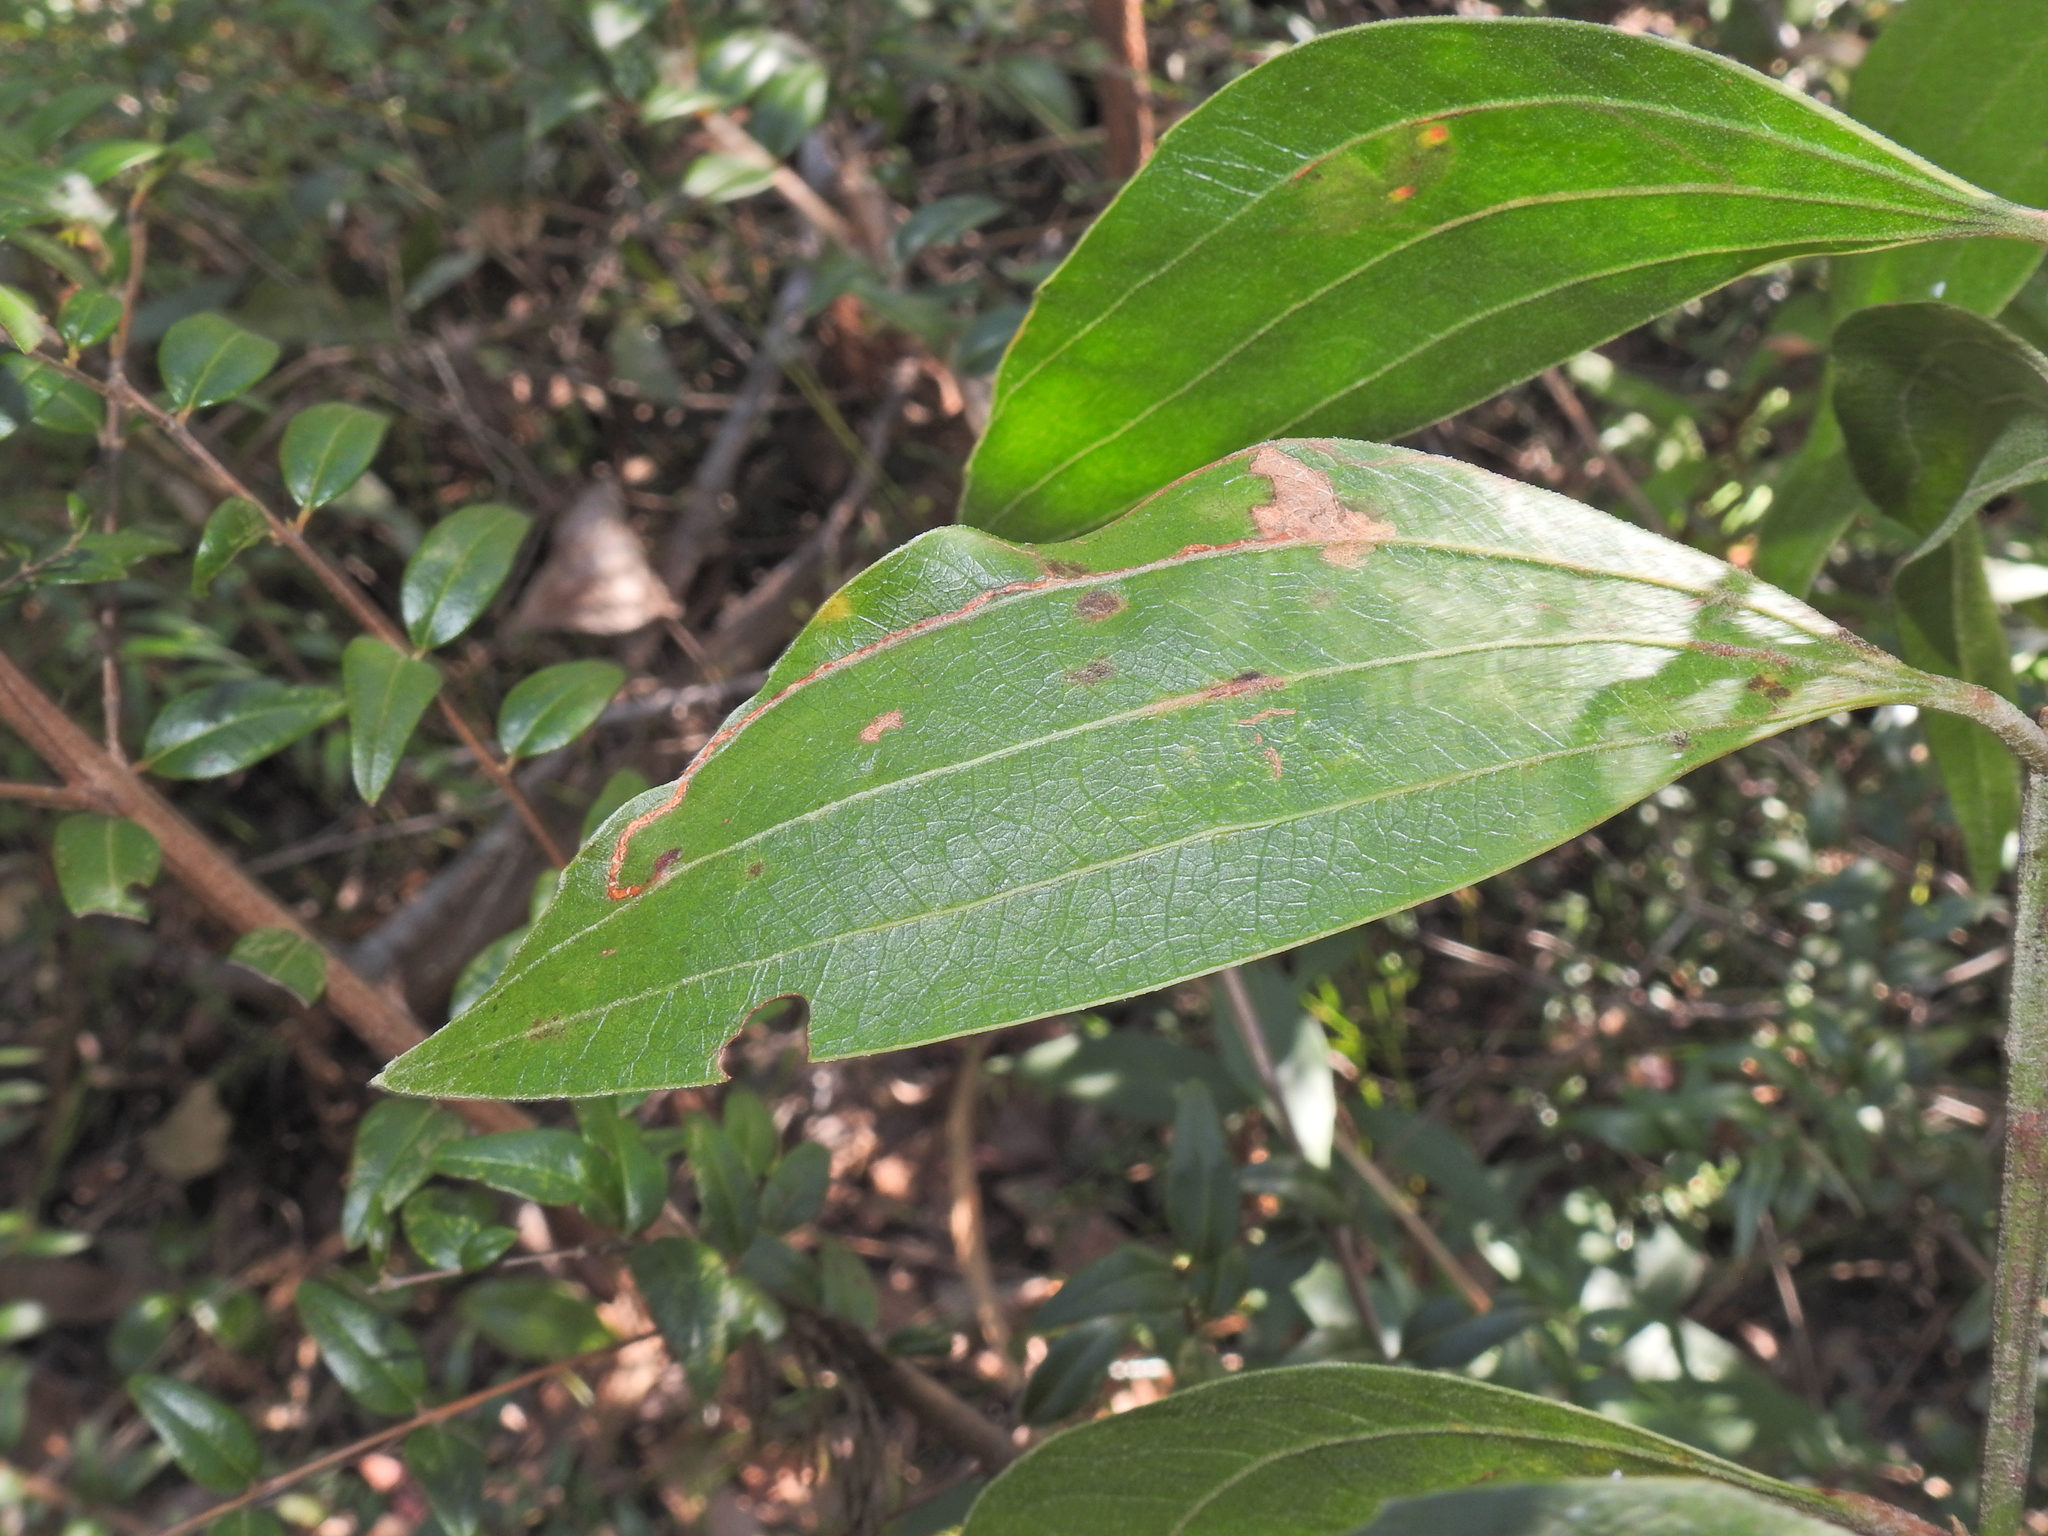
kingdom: Plantae
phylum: Tracheophyta
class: Magnoliopsida
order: Fabales
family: Fabaceae
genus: Acacia
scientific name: Acacia flavescens
